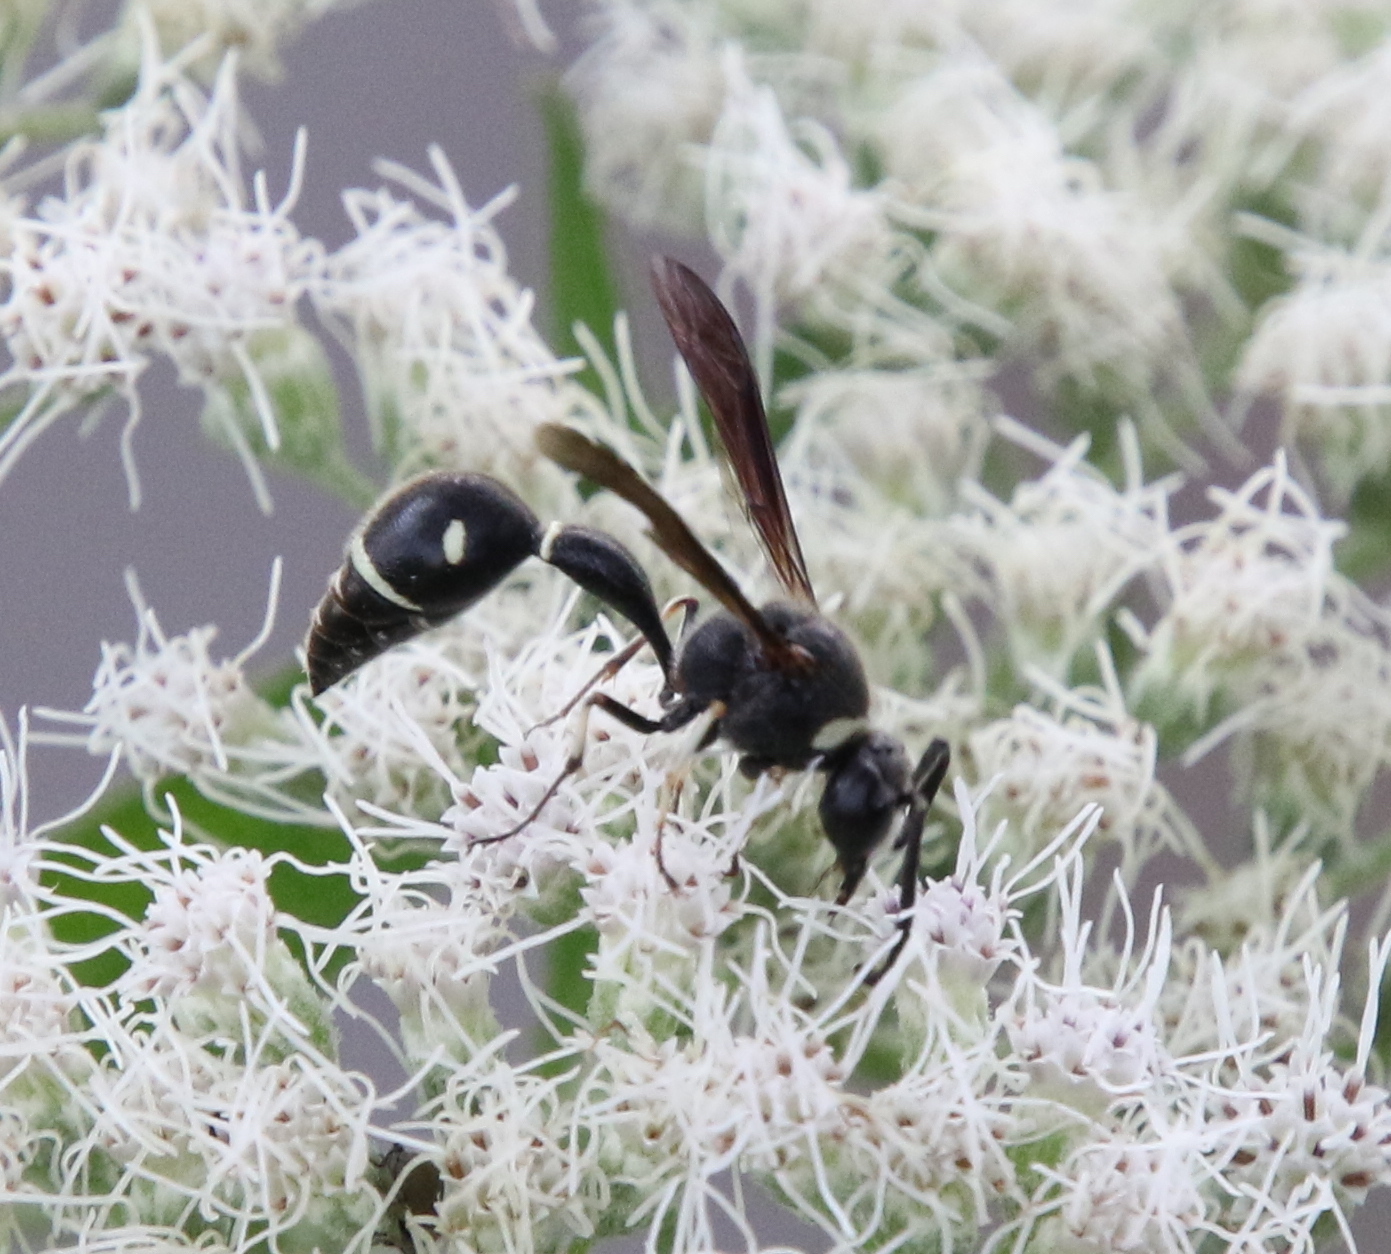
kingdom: Animalia
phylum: Arthropoda
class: Insecta
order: Hymenoptera
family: Vespidae
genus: Eumenes
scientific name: Eumenes fraternus
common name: Fraternal potter wasp
